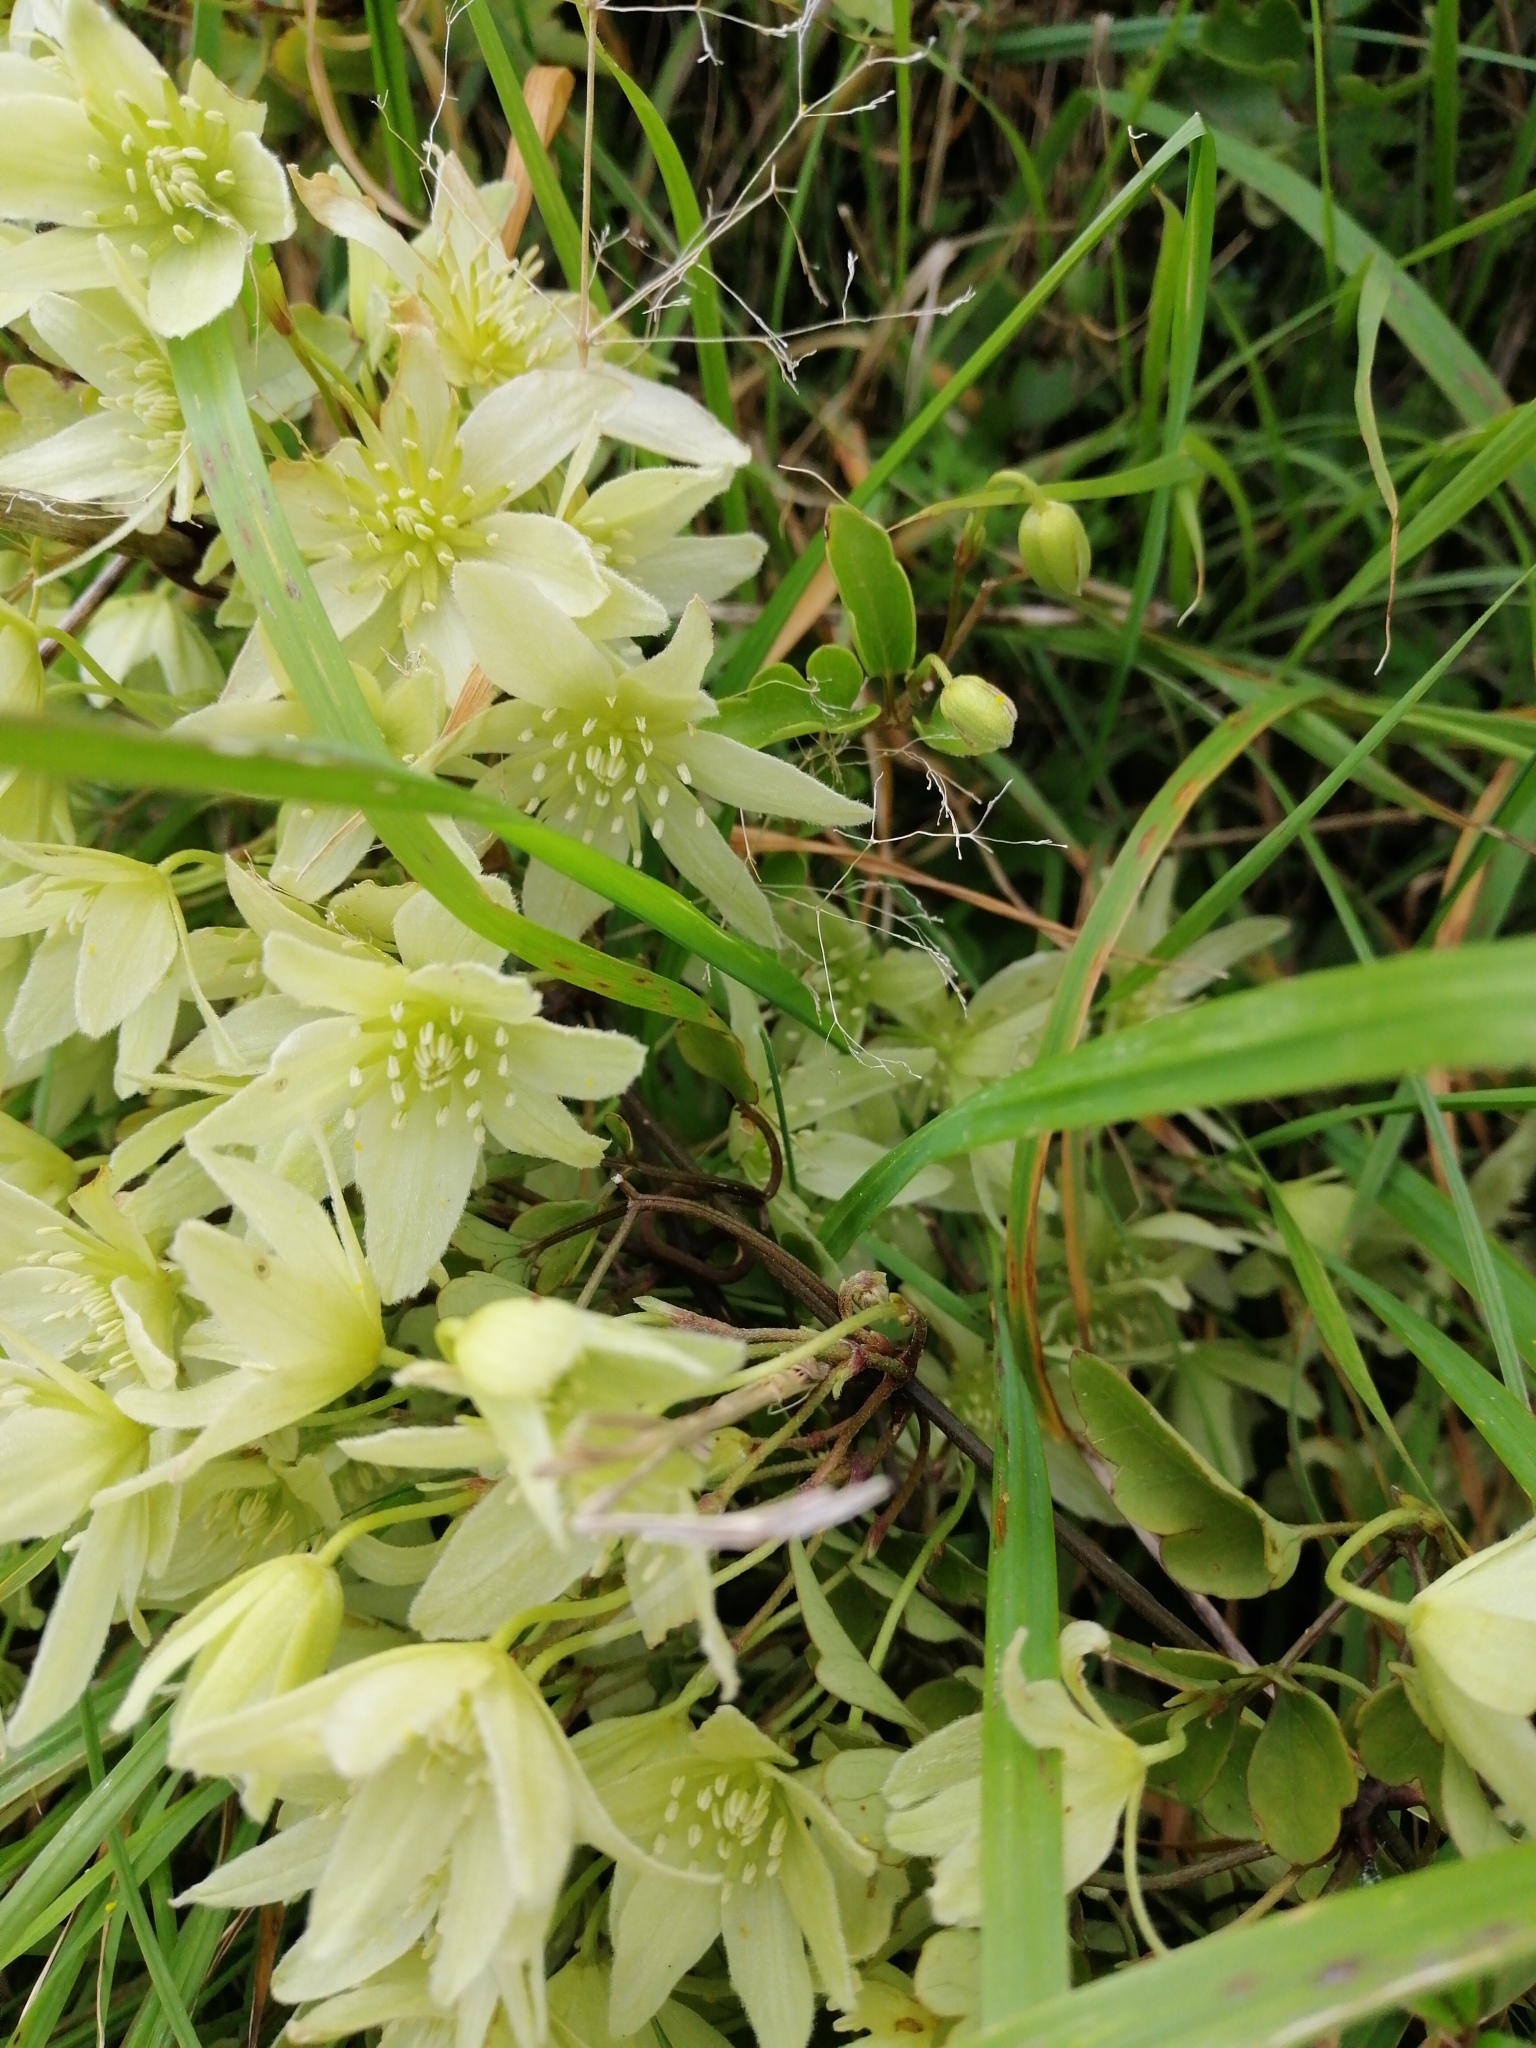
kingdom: Plantae
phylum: Tracheophyta
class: Magnoliopsida
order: Ranunculales
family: Ranunculaceae
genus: Clematis
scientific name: Clematis forsteri
